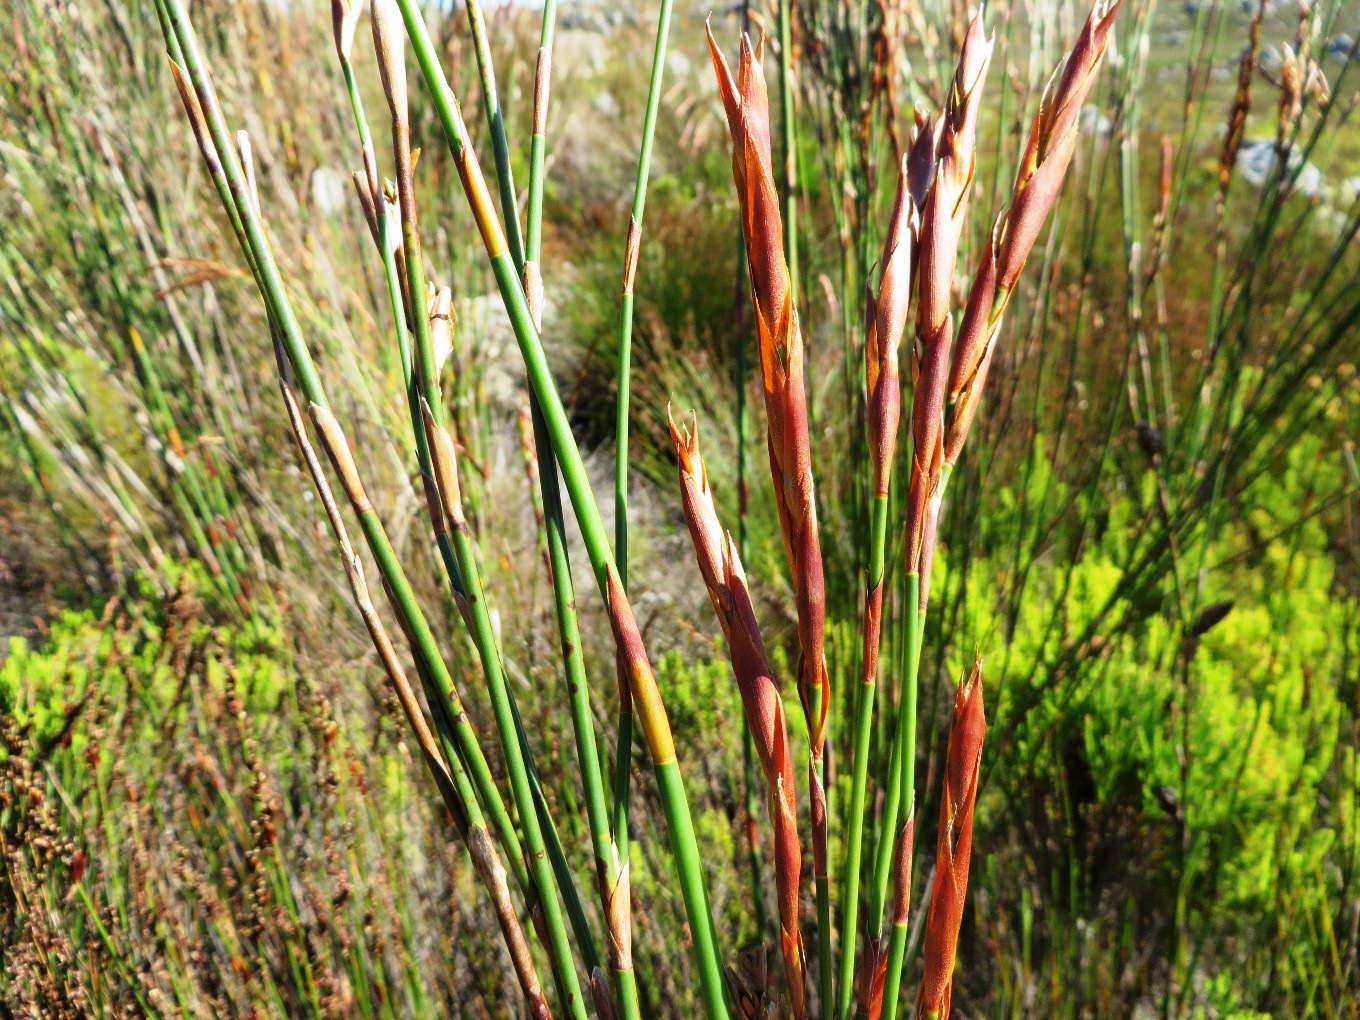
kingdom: Plantae
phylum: Tracheophyta
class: Liliopsida
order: Poales
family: Restionaceae
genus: Restio
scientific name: Restio dispar
